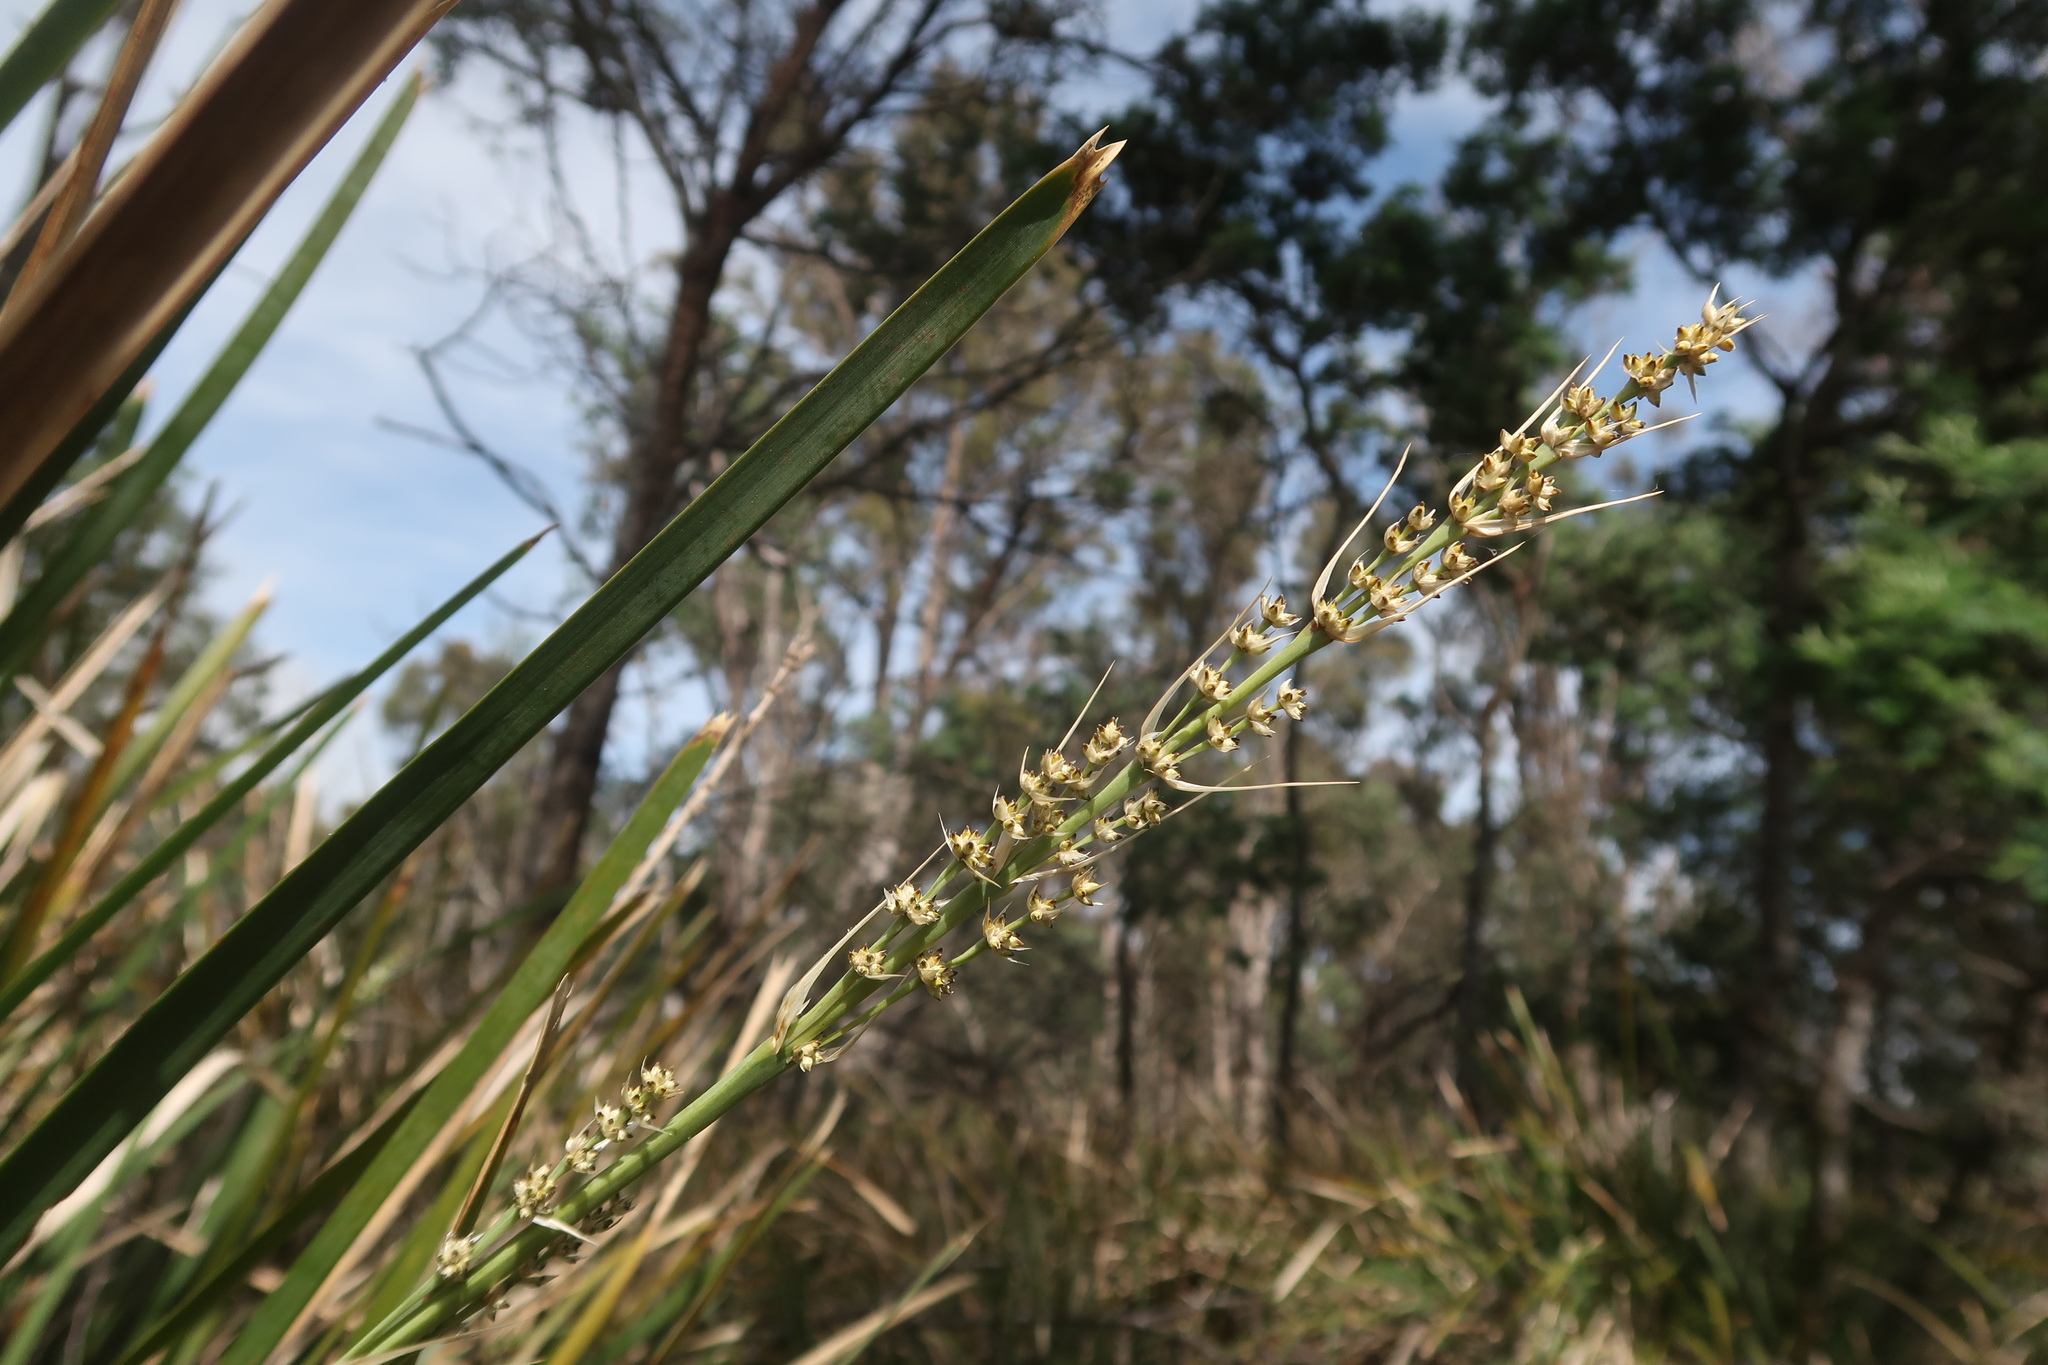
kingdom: Plantae
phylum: Tracheophyta
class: Liliopsida
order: Asparagales
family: Asparagaceae
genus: Lomandra
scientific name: Lomandra longifolia
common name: Longleaf mat-rush
